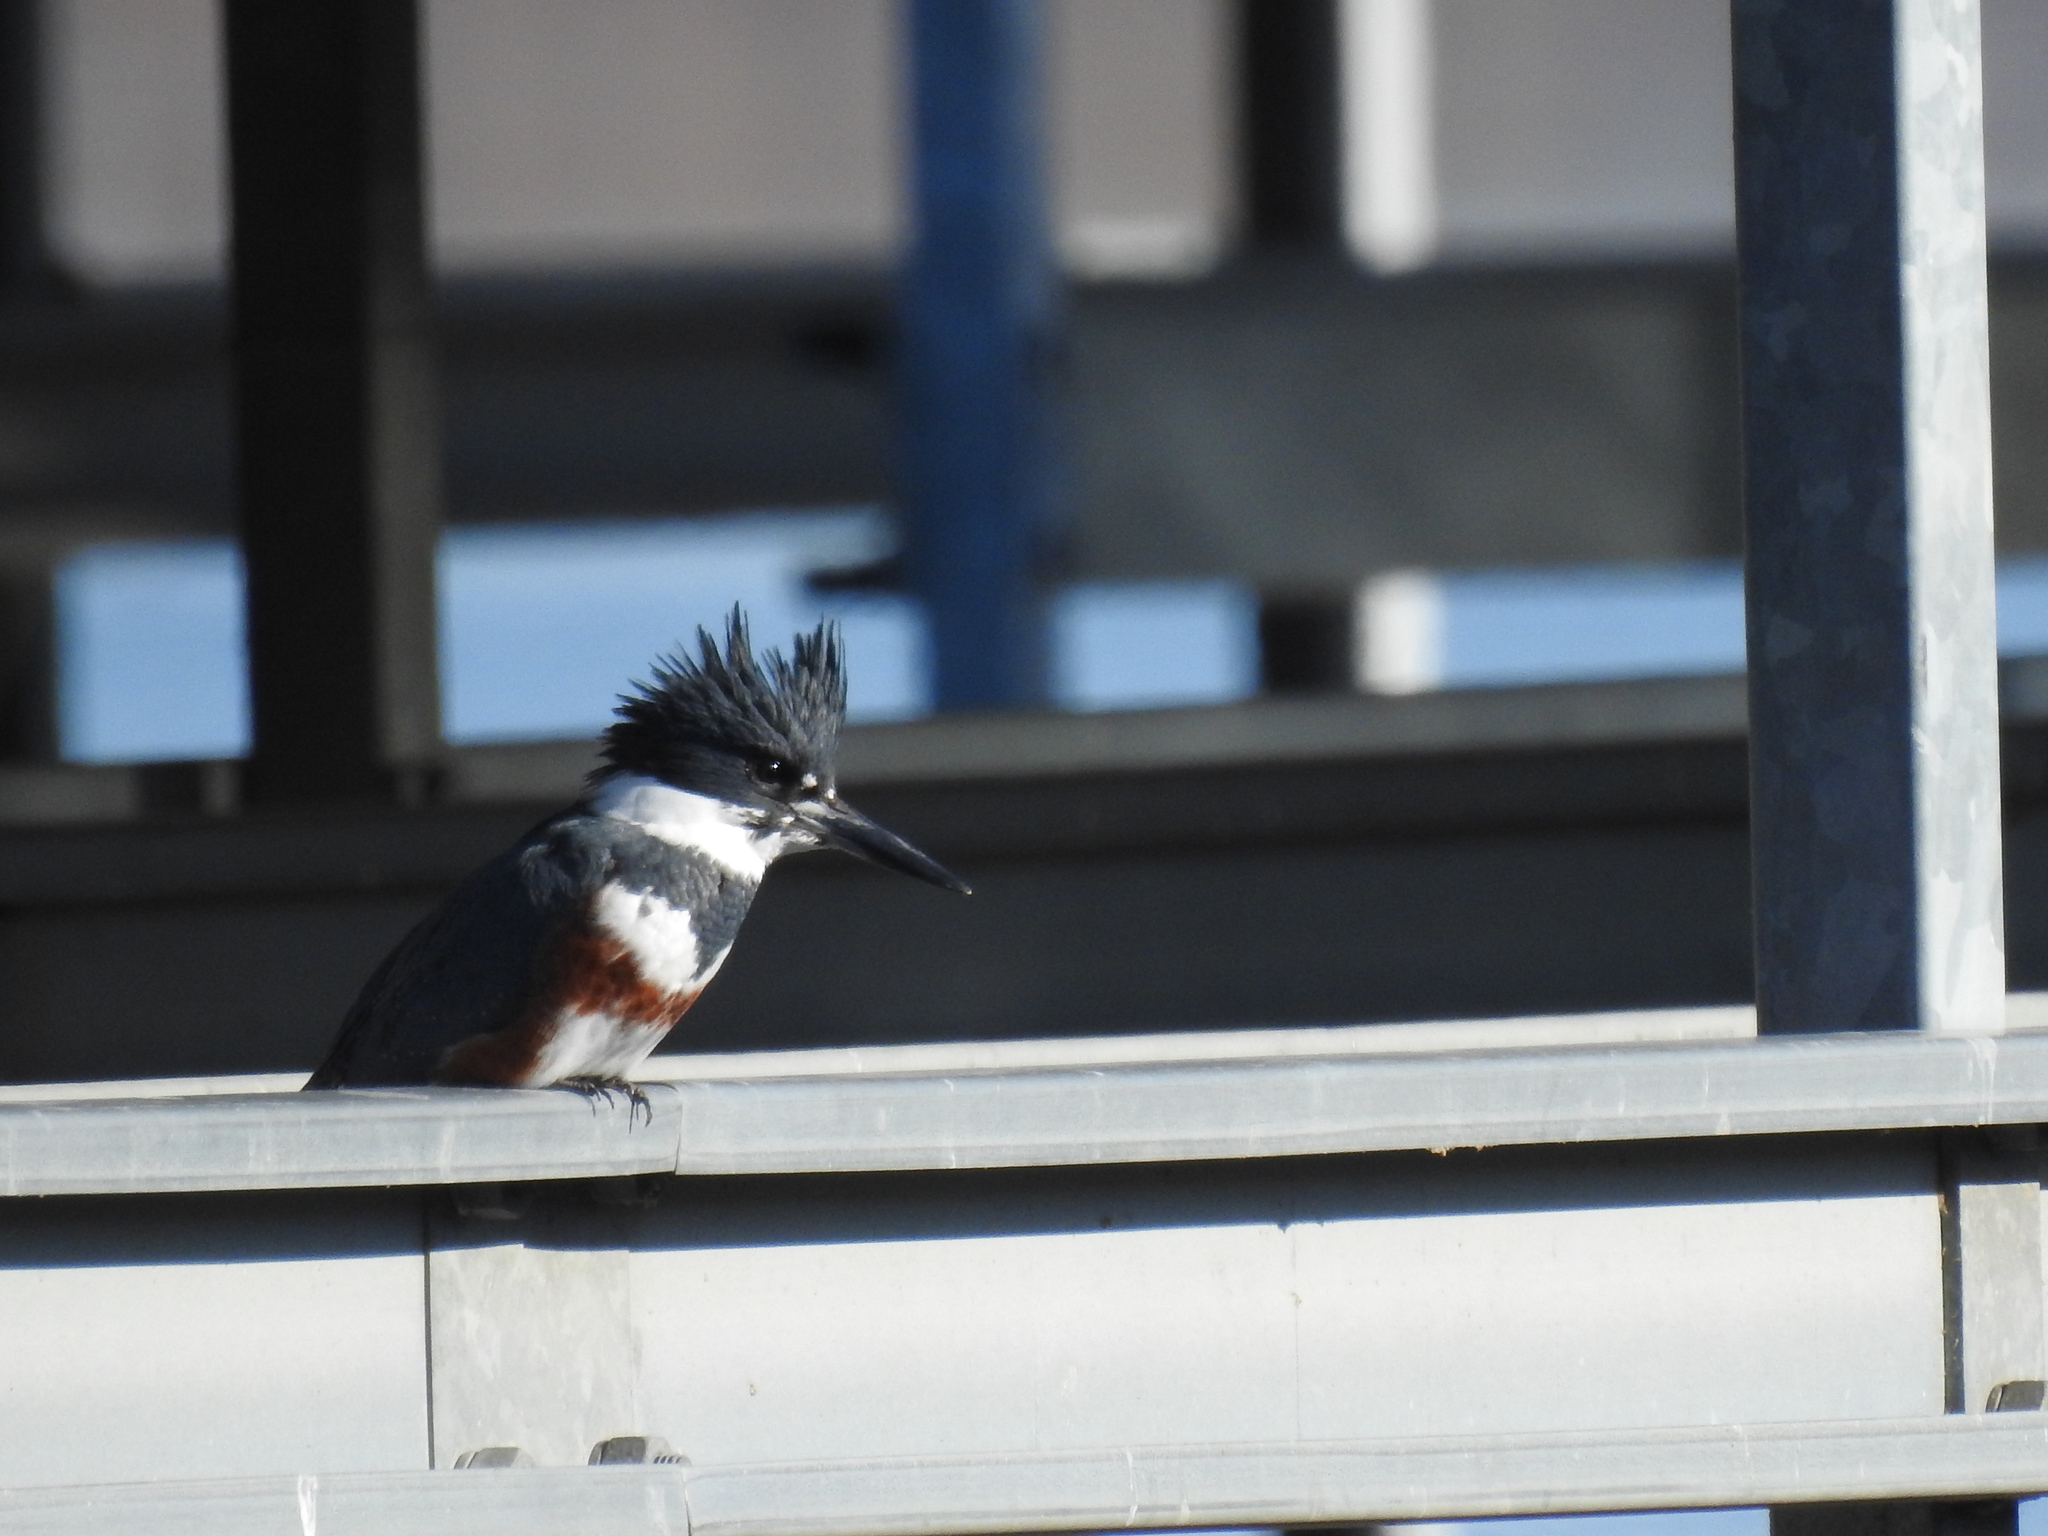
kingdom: Animalia
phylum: Chordata
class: Aves
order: Coraciiformes
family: Alcedinidae
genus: Megaceryle
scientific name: Megaceryle alcyon
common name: Belted kingfisher
